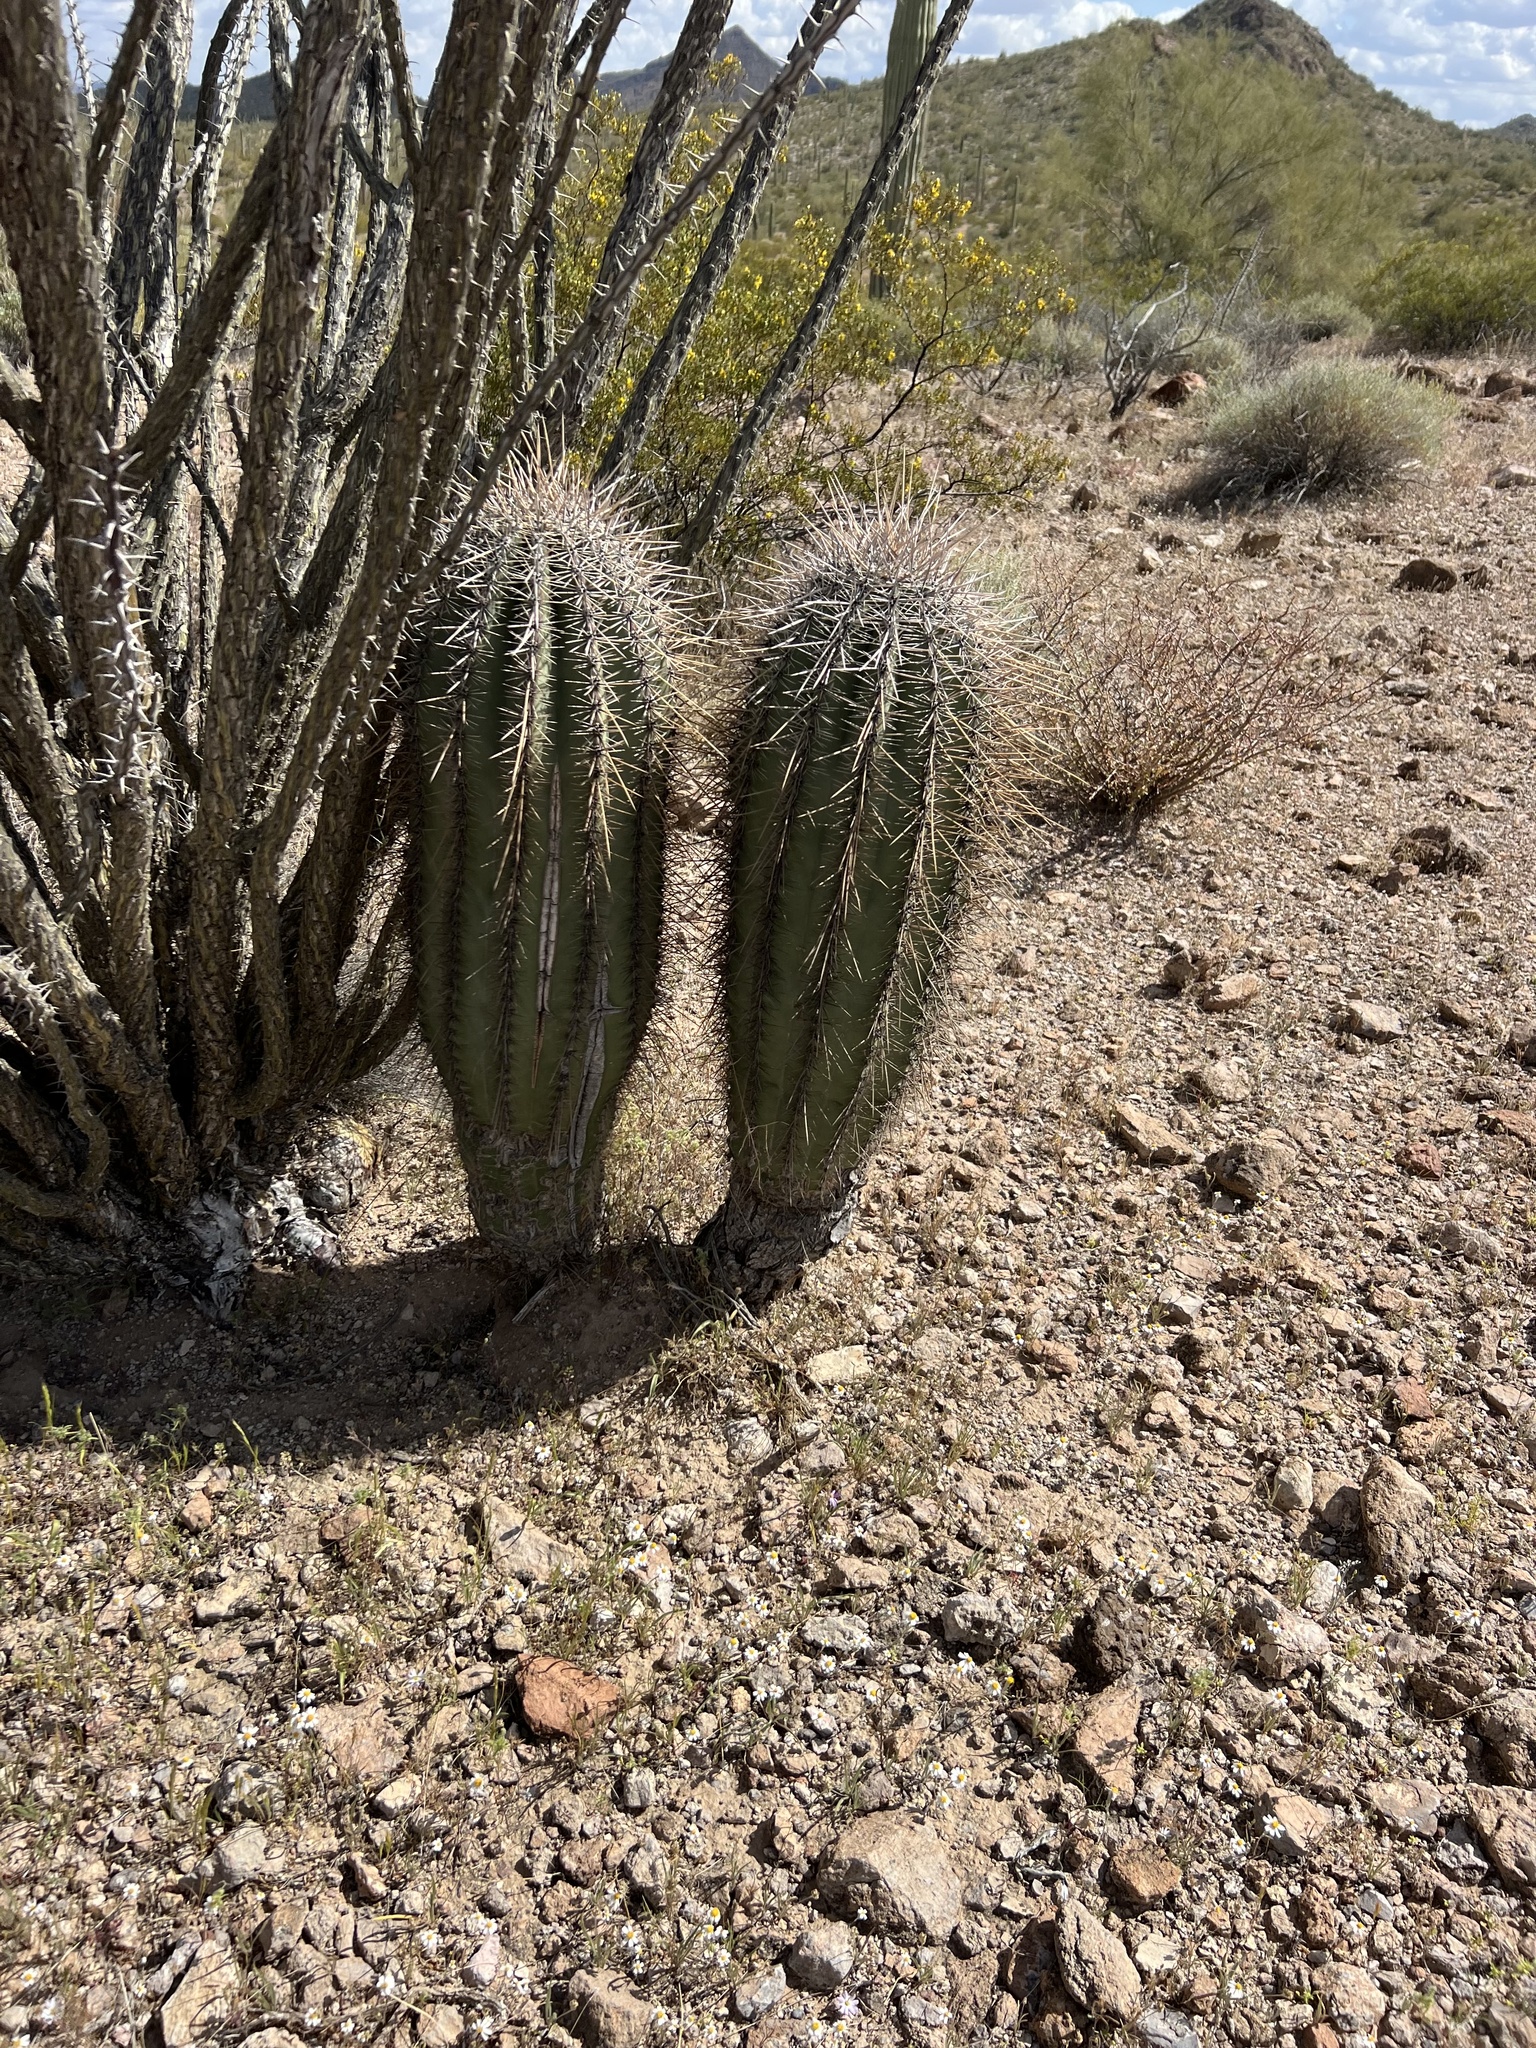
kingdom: Plantae
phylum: Tracheophyta
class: Magnoliopsida
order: Caryophyllales
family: Cactaceae
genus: Carnegiea
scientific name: Carnegiea gigantea
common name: Saguaro
